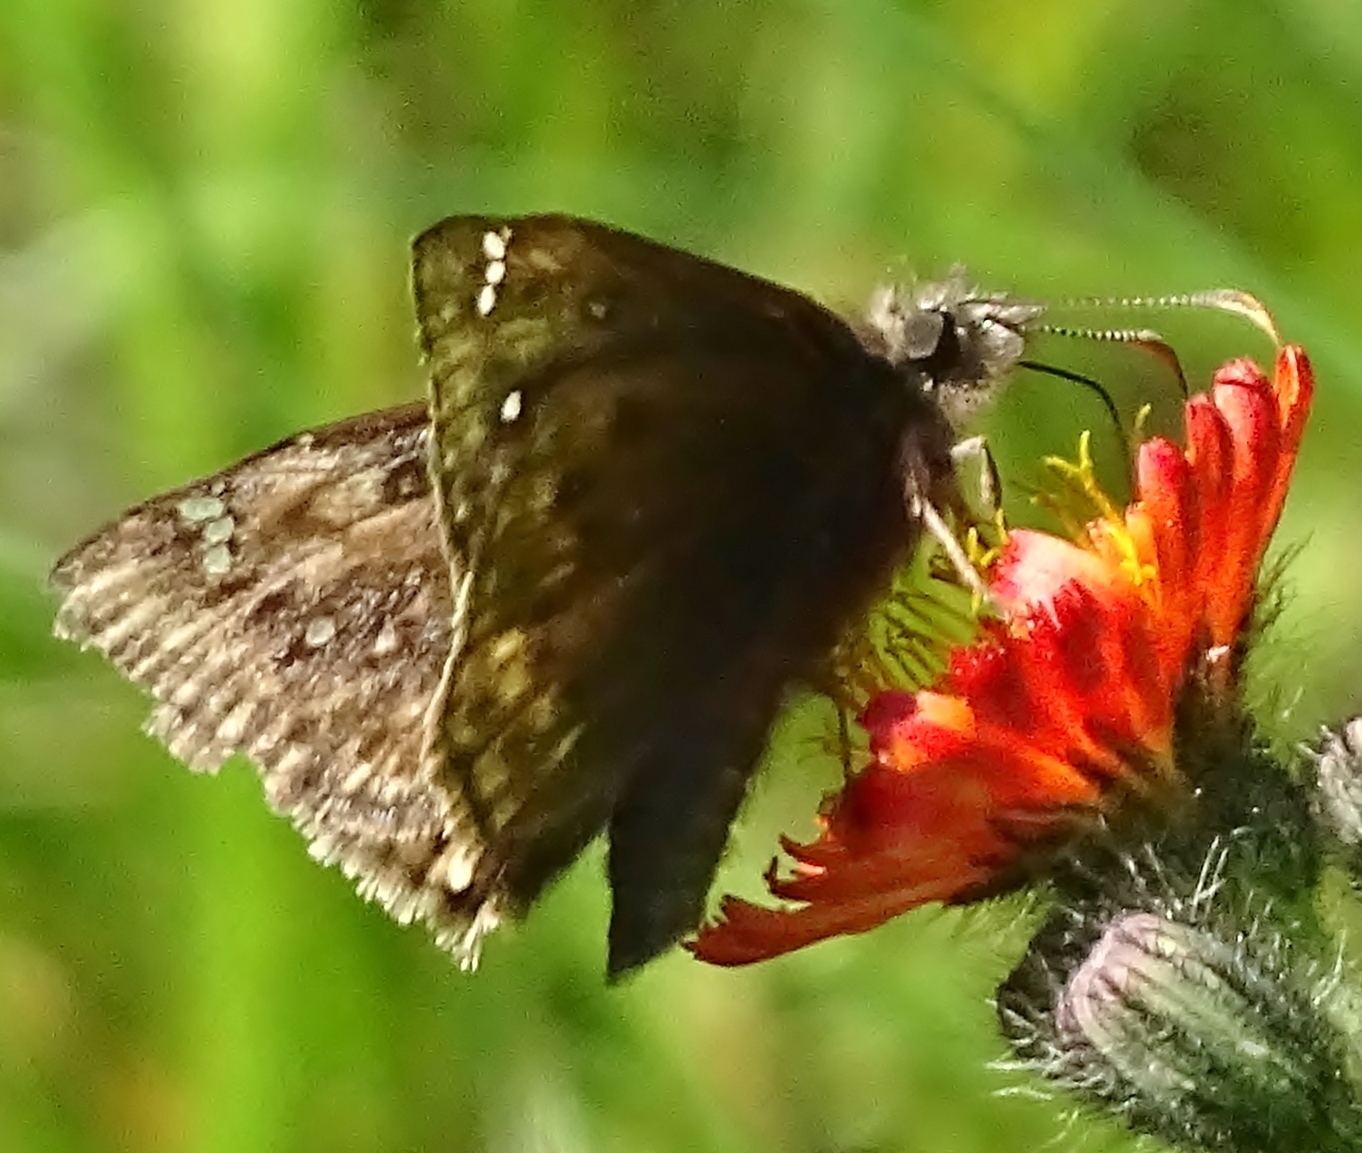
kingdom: Animalia
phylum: Arthropoda
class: Insecta
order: Lepidoptera
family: Hesperiidae
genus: Erynnis
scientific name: Erynnis juvenalis
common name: Juvenal's duskywing
